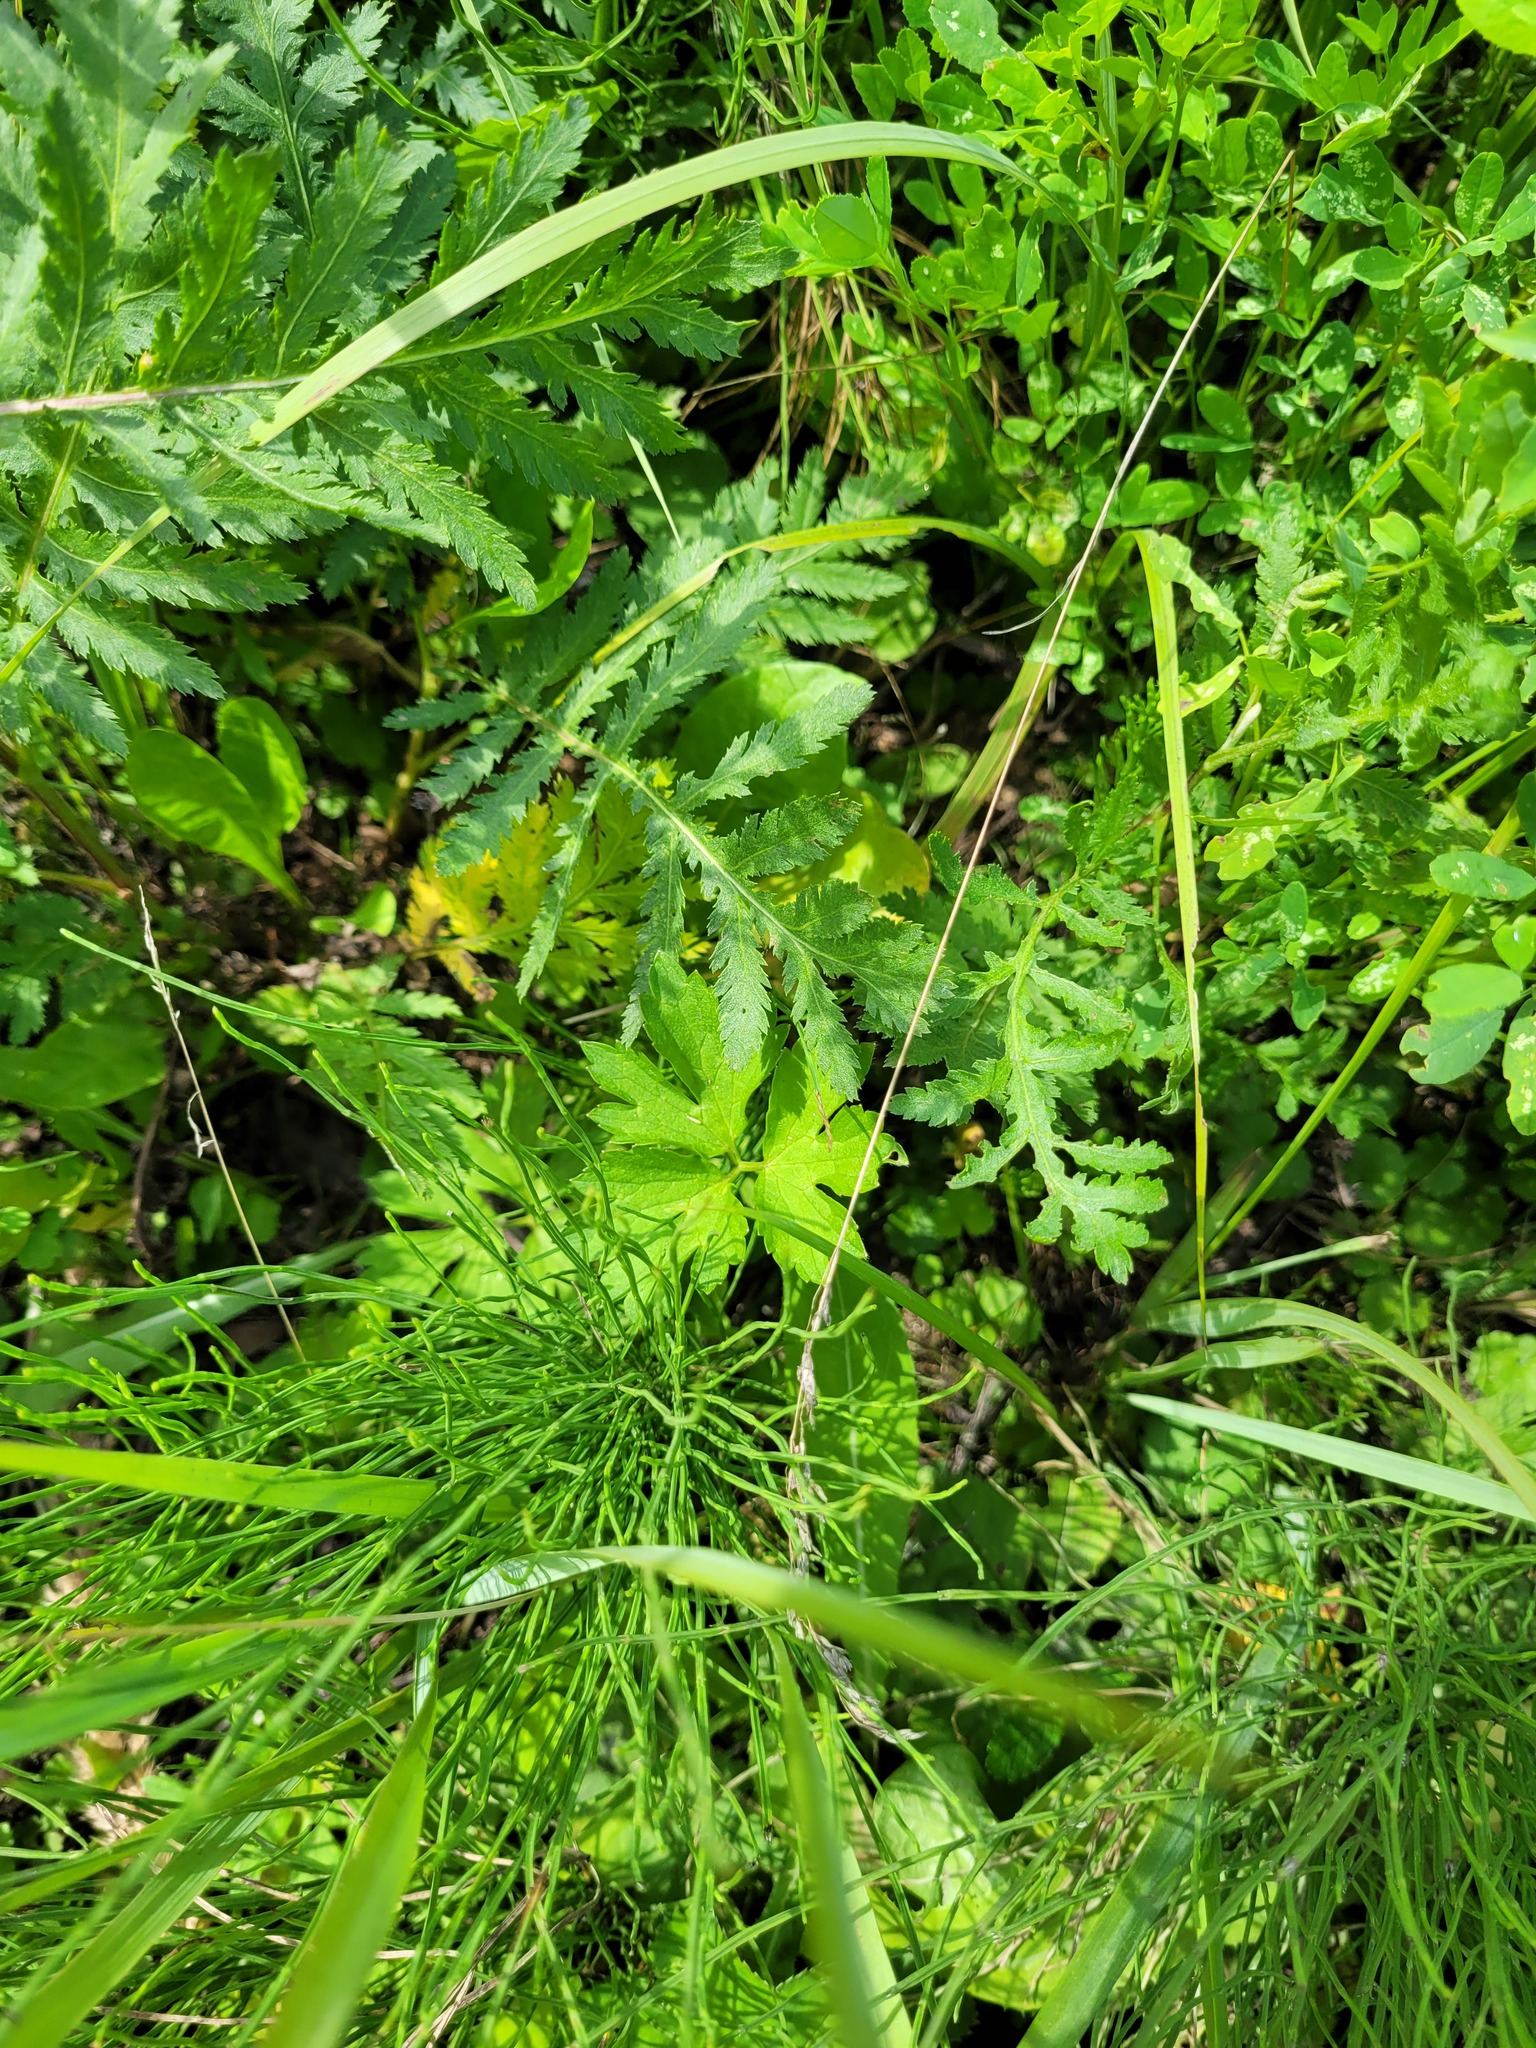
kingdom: Plantae
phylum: Tracheophyta
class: Magnoliopsida
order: Ranunculales
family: Ranunculaceae
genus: Ranunculus
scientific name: Ranunculus repens
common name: Creeping buttercup
